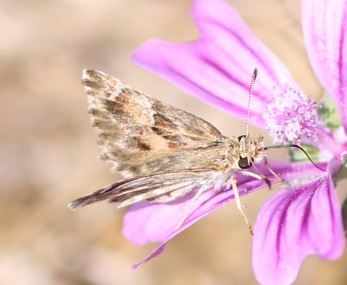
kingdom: Animalia
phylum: Arthropoda
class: Insecta
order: Lepidoptera
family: Hesperiidae
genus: Carcharodus
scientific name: Carcharodus alceae
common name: Mallow skipper
